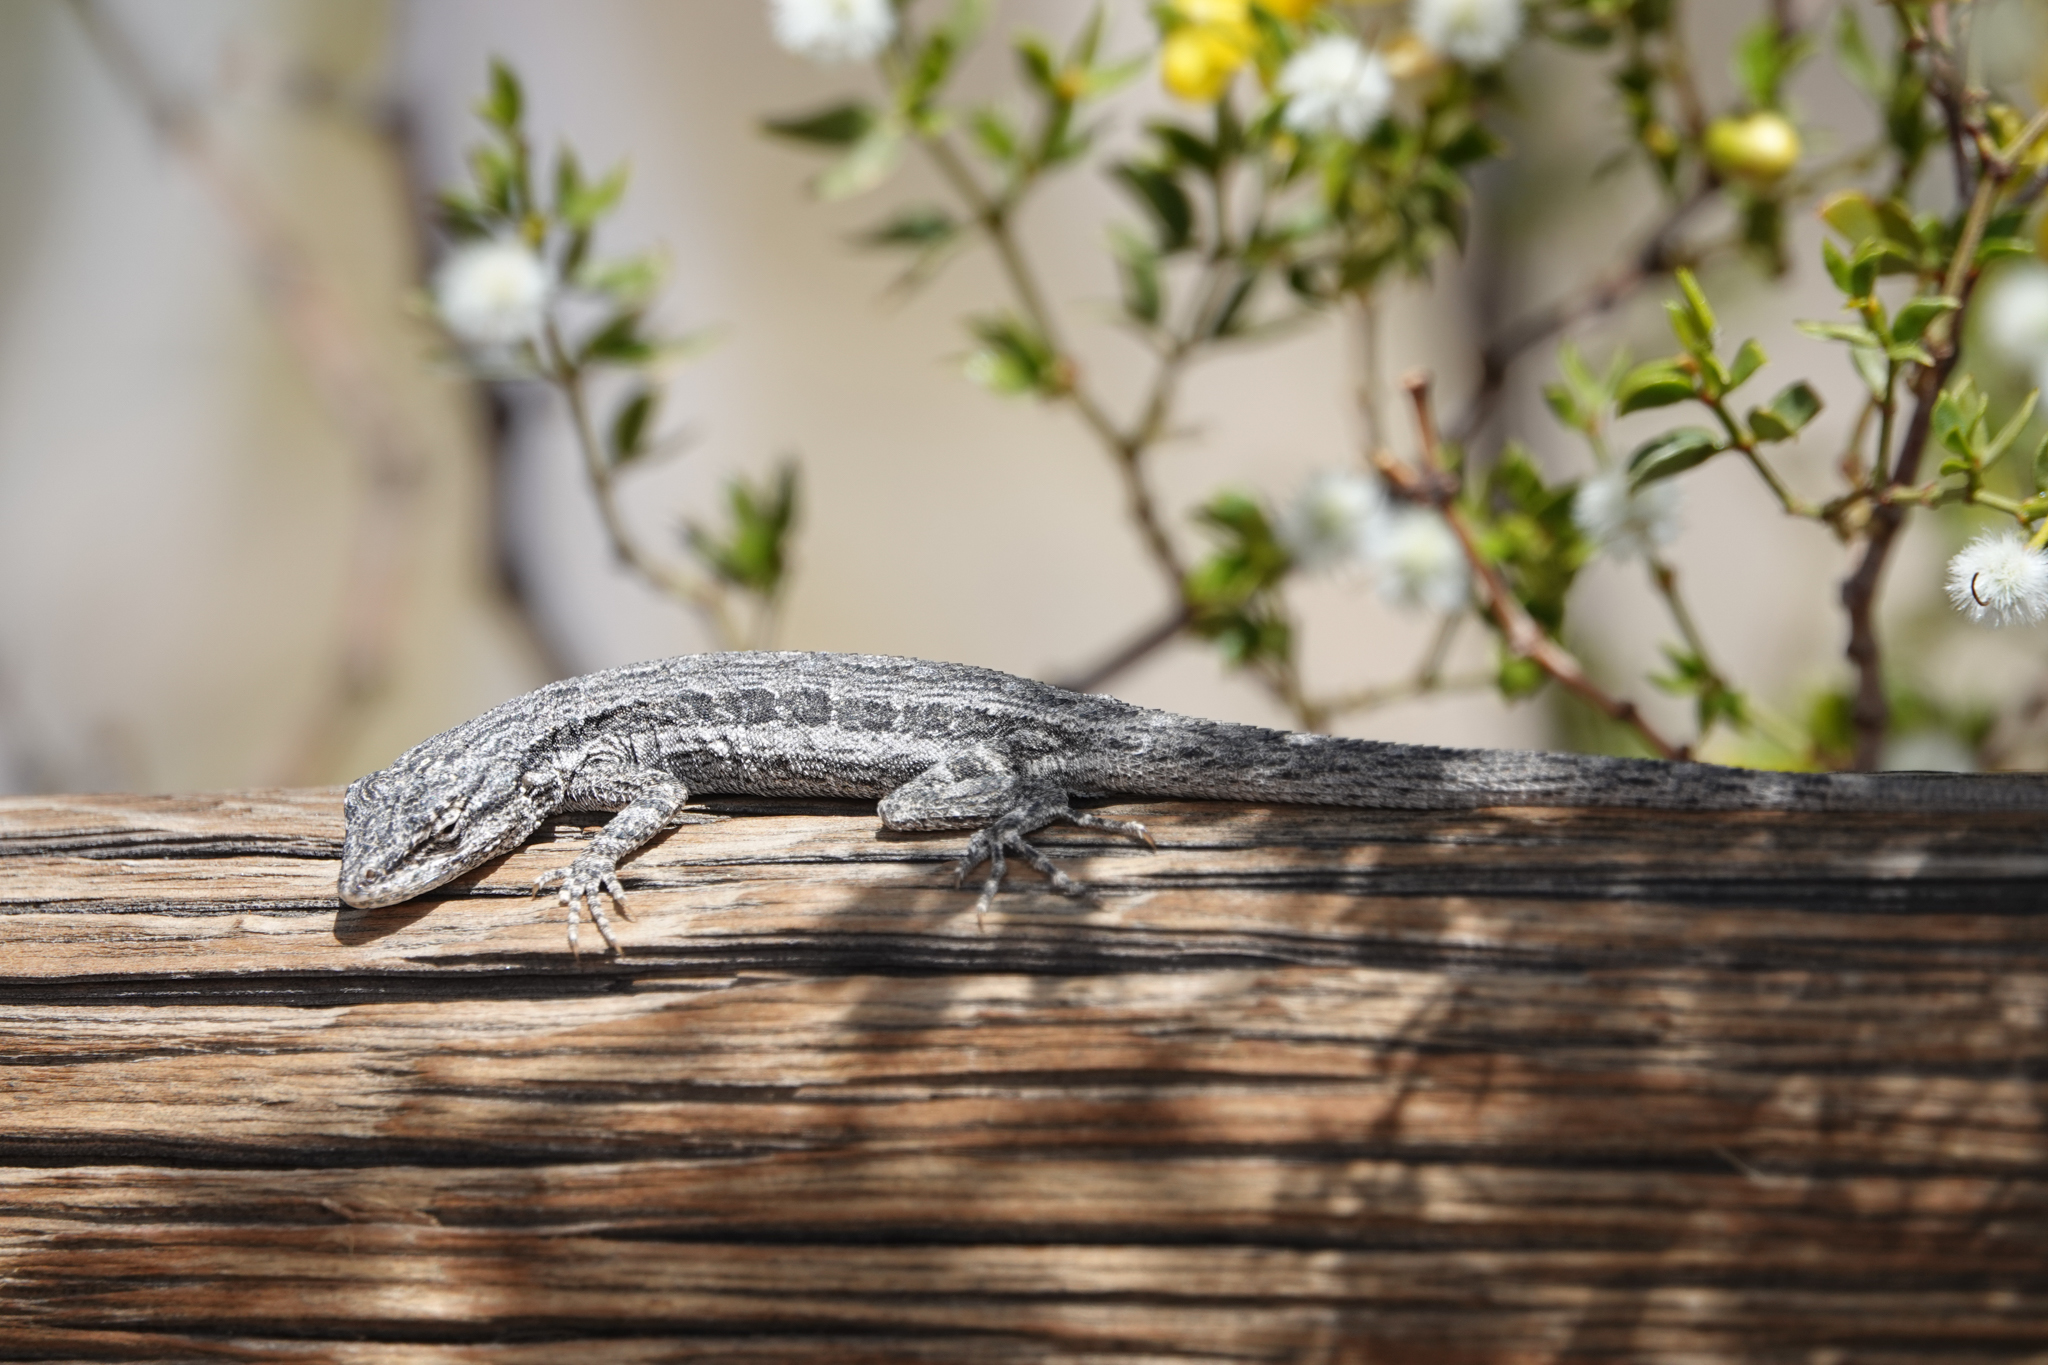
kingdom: Animalia
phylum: Chordata
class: Squamata
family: Phrynosomatidae
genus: Urosaurus
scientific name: Urosaurus graciosus
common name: Long-tailed brush lizard
